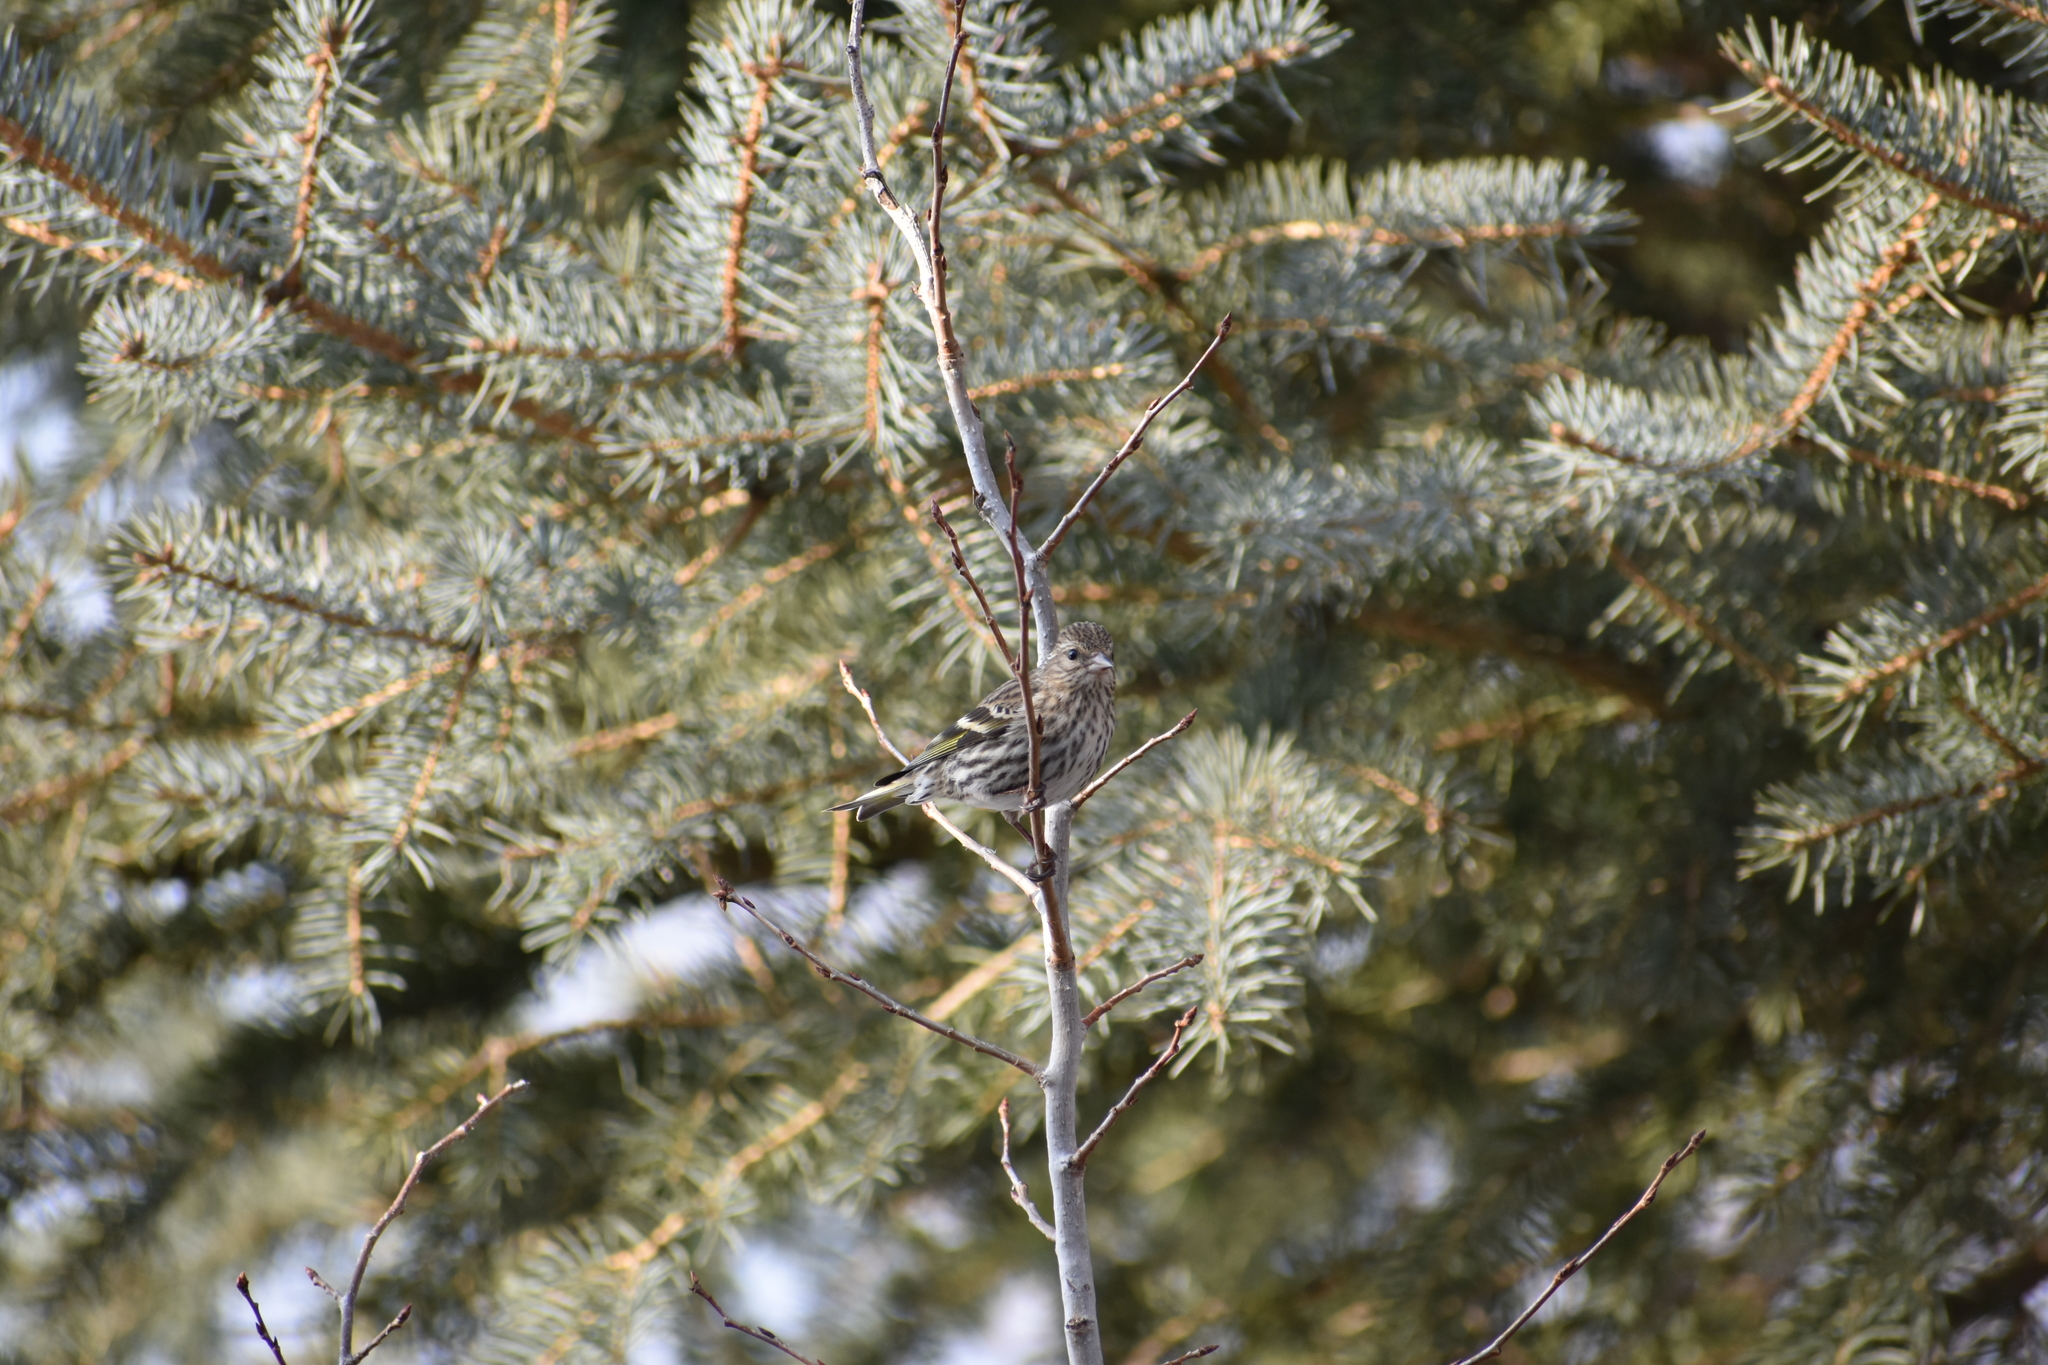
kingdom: Animalia
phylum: Chordata
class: Aves
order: Passeriformes
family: Fringillidae
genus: Spinus
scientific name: Spinus pinus
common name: Pine siskin
